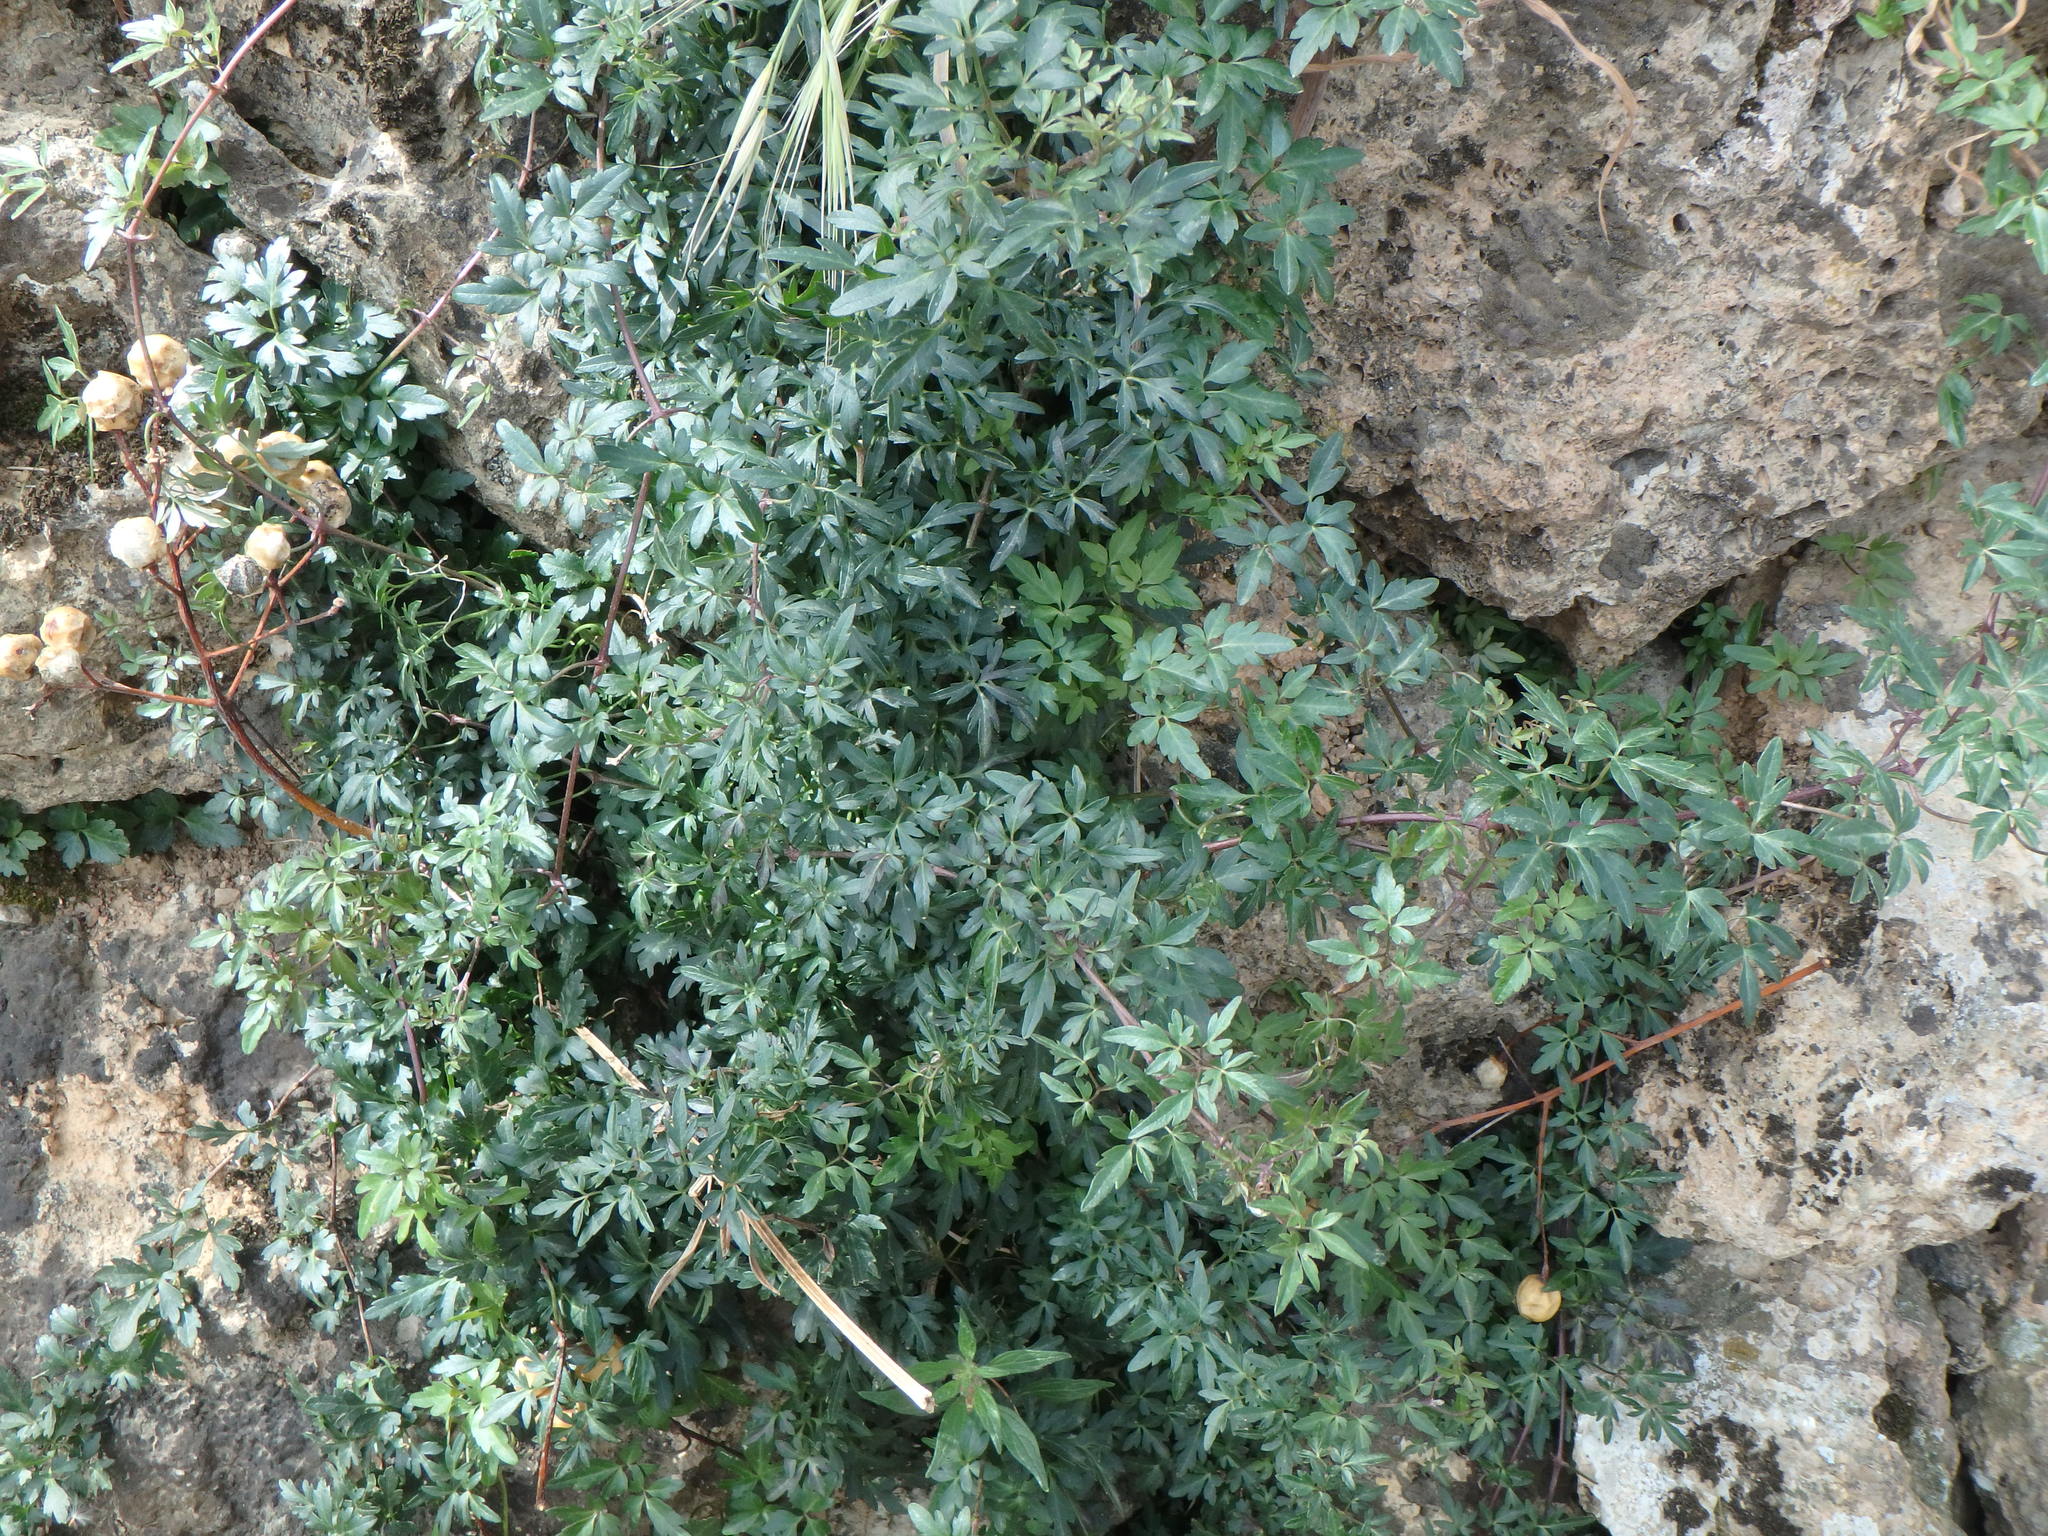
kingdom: Plantae
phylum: Tracheophyta
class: Magnoliopsida
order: Ranunculales
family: Ranunculaceae
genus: Clematis
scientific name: Clematis cirrhosa
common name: Early virgin's-bower
